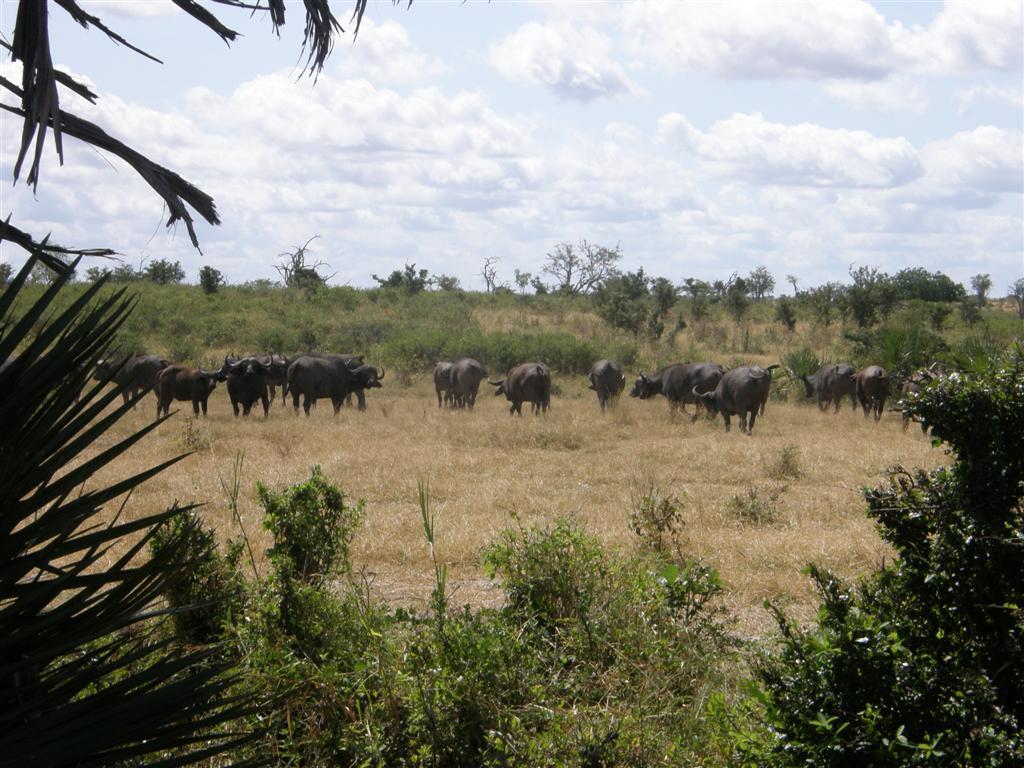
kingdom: Animalia
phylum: Chordata
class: Mammalia
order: Artiodactyla
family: Bovidae
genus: Syncerus
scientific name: Syncerus caffer
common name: African buffalo
